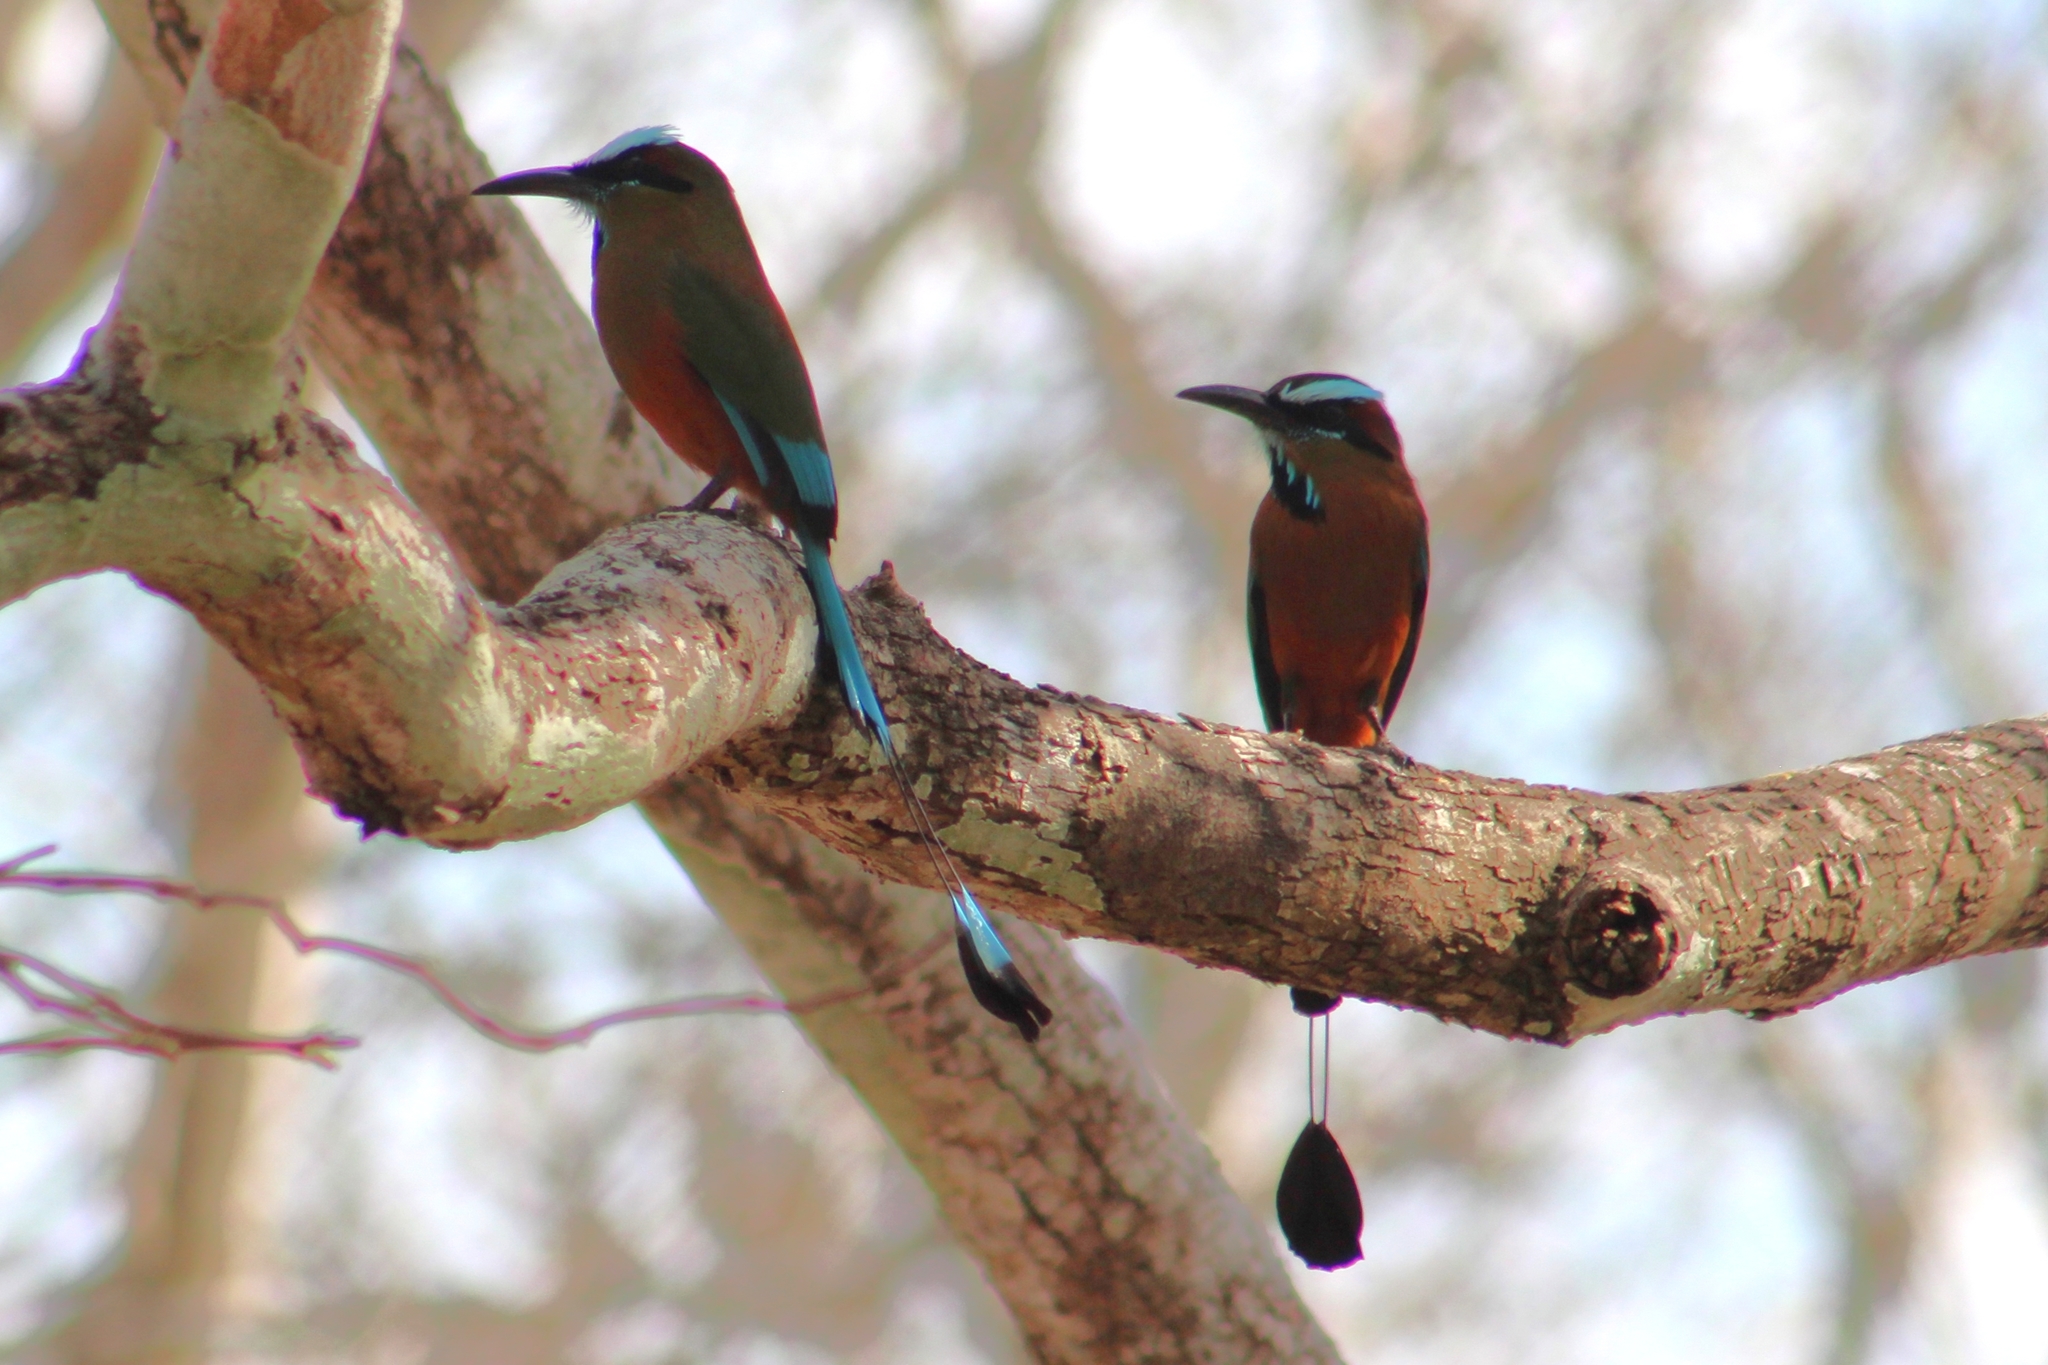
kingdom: Animalia
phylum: Chordata
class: Aves
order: Coraciiformes
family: Momotidae
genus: Eumomota
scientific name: Eumomota superciliosa
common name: Turquoise-browed motmot
